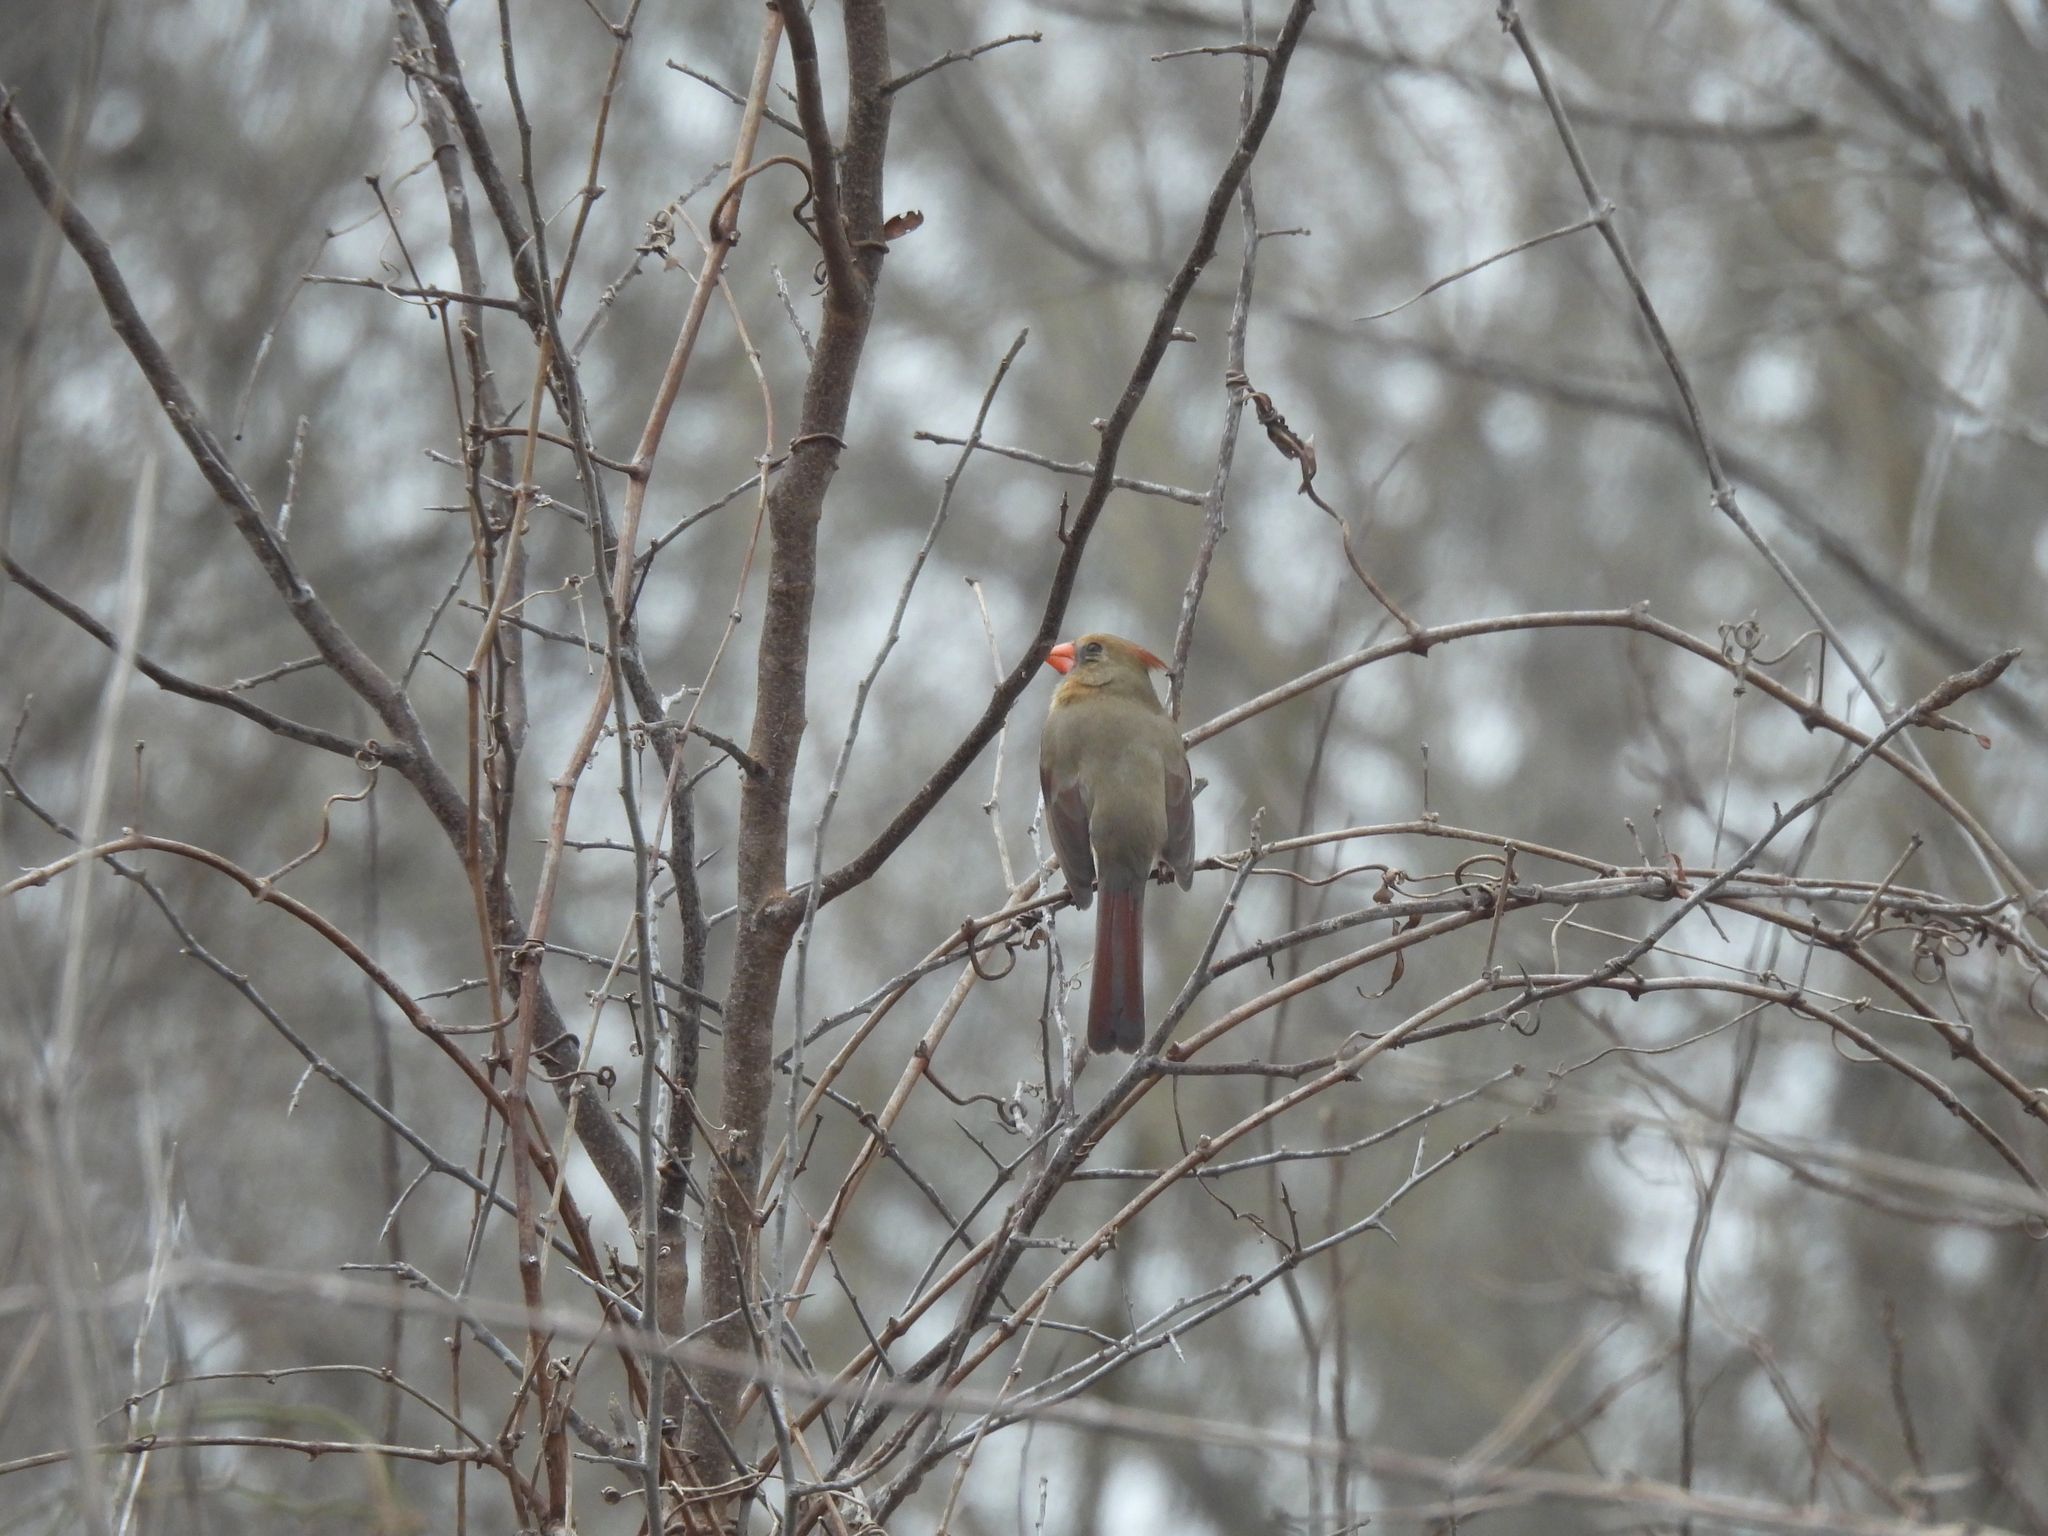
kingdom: Animalia
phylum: Chordata
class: Aves
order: Passeriformes
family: Cardinalidae
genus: Cardinalis
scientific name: Cardinalis cardinalis
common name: Northern cardinal
